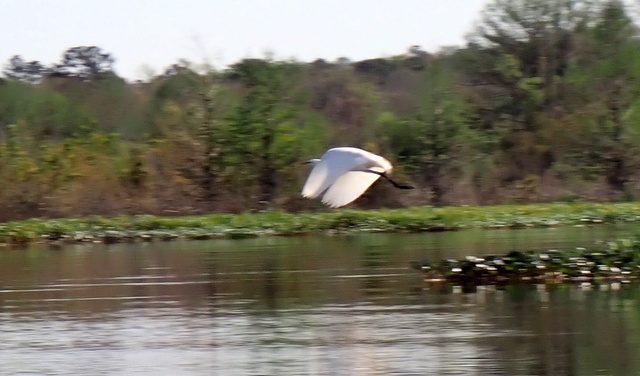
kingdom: Animalia
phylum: Chordata
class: Aves
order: Pelecaniformes
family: Ardeidae
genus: Ardea
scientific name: Ardea alba
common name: Great egret
